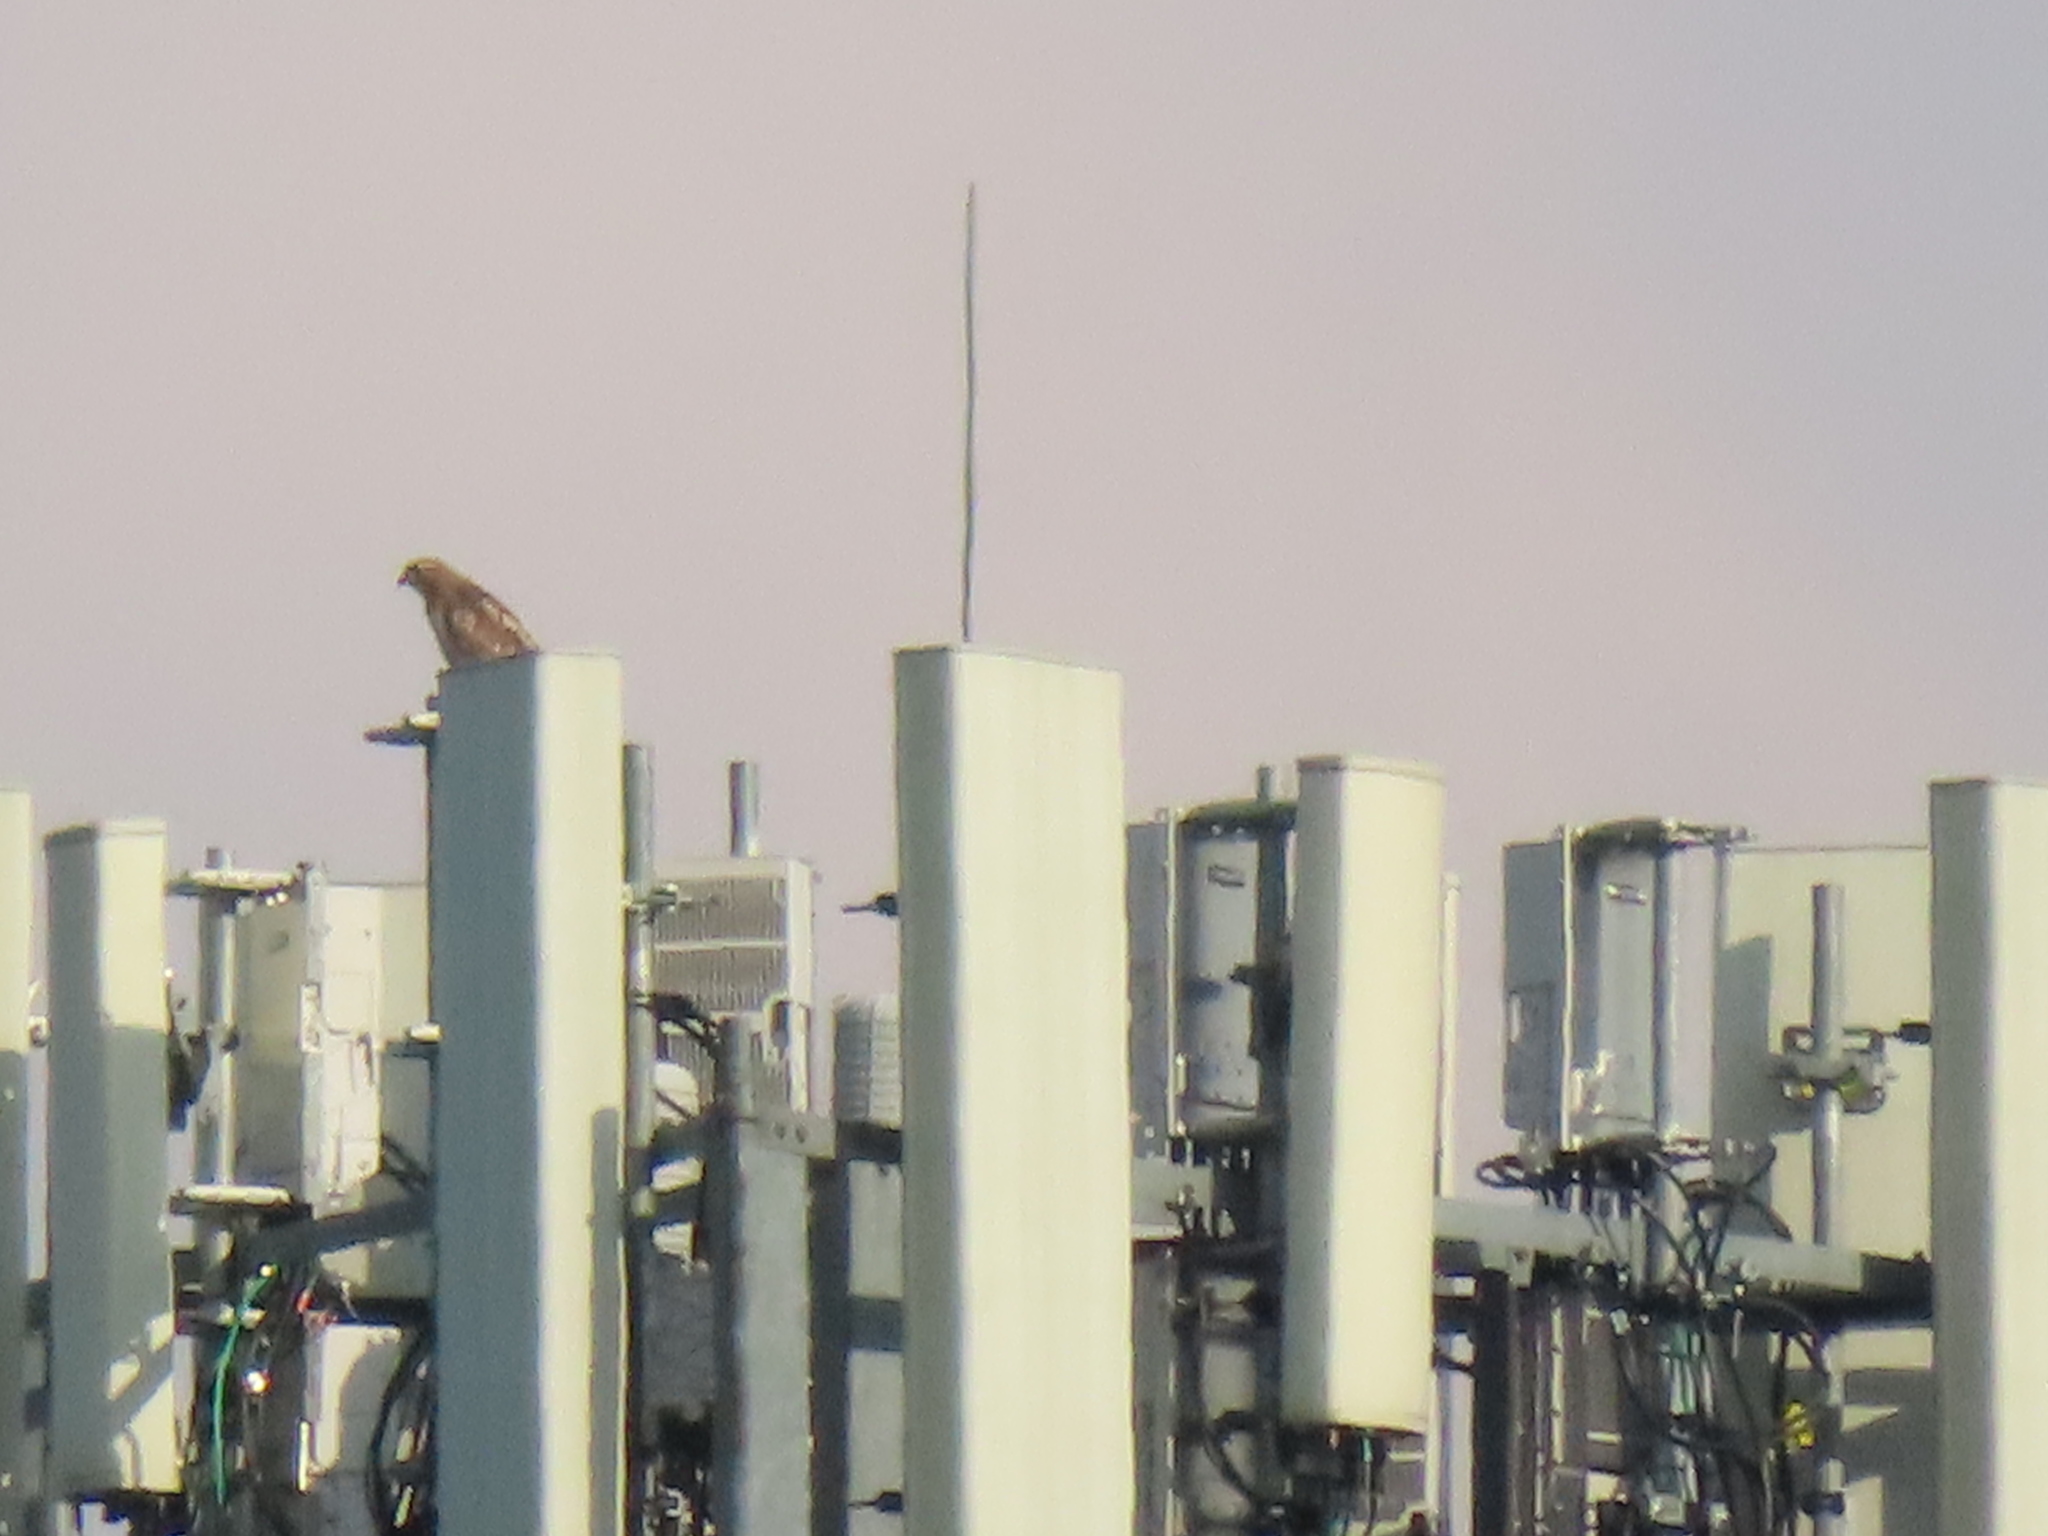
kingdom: Animalia
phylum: Chordata
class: Aves
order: Accipitriformes
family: Accipitridae
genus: Buteo
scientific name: Buteo jamaicensis
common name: Red-tailed hawk
